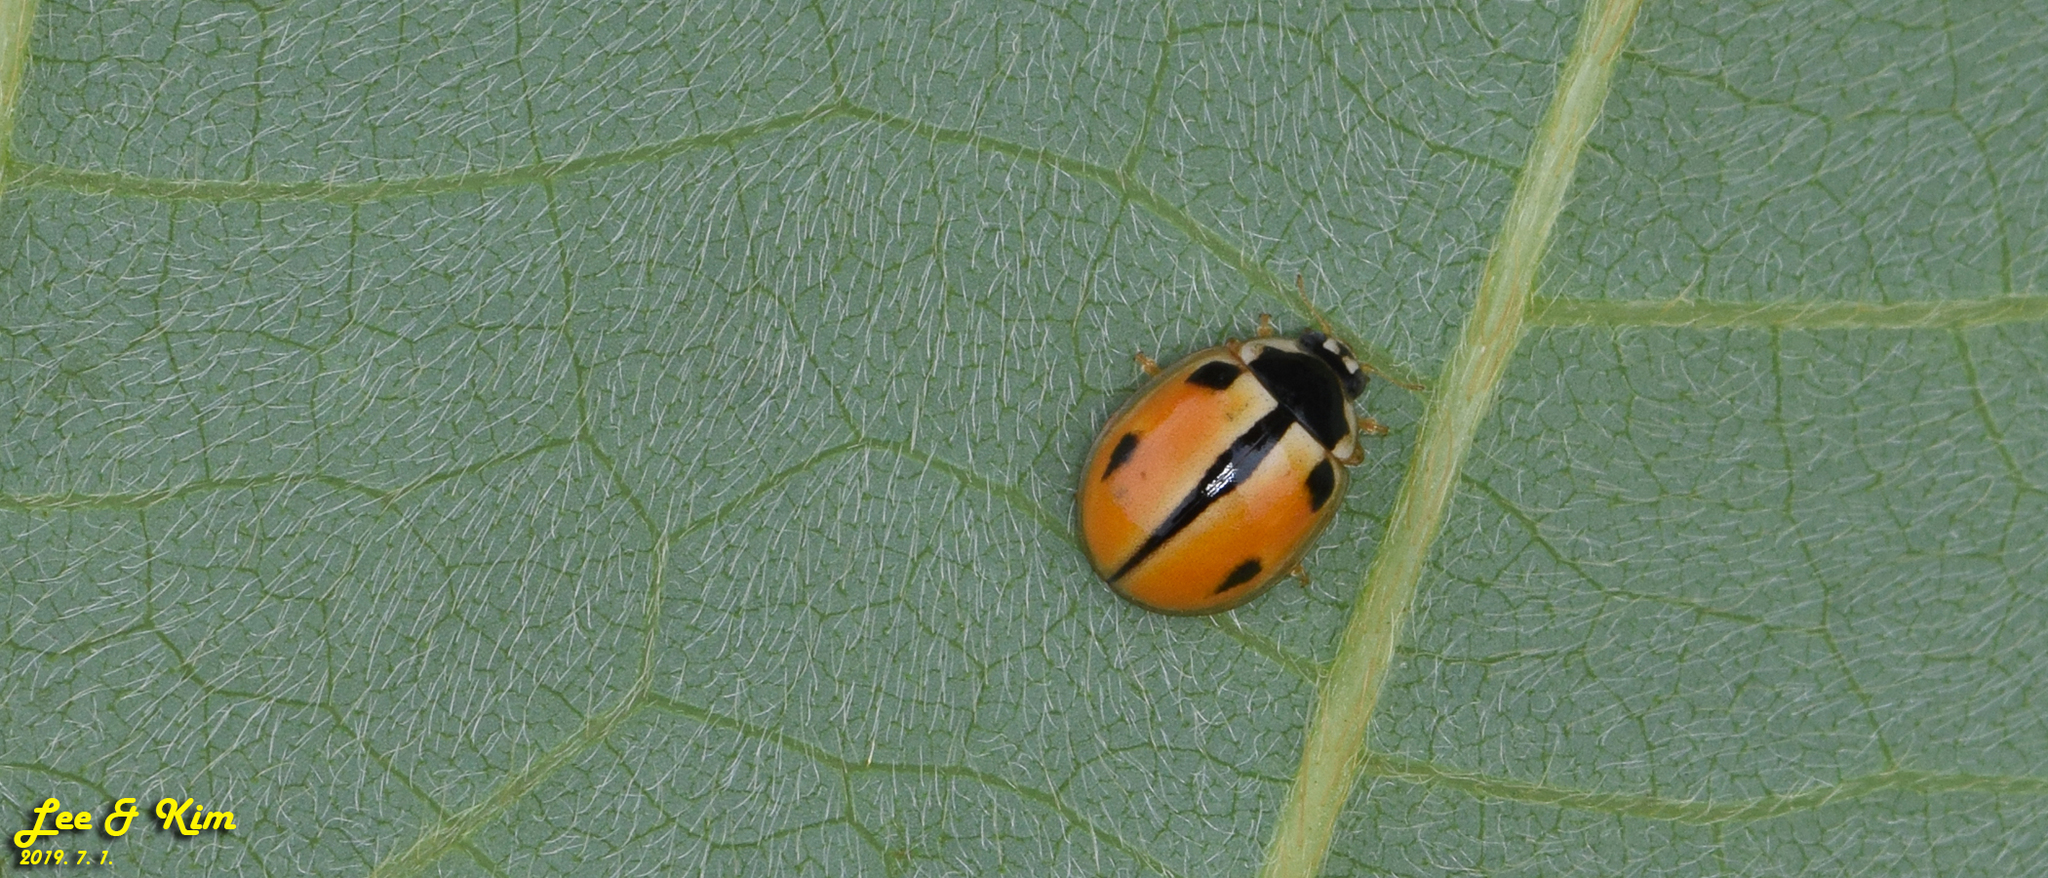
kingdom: Animalia
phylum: Arthropoda
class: Insecta
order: Coleoptera
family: Coccinellidae
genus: Propylea
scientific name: Propylea japonica
